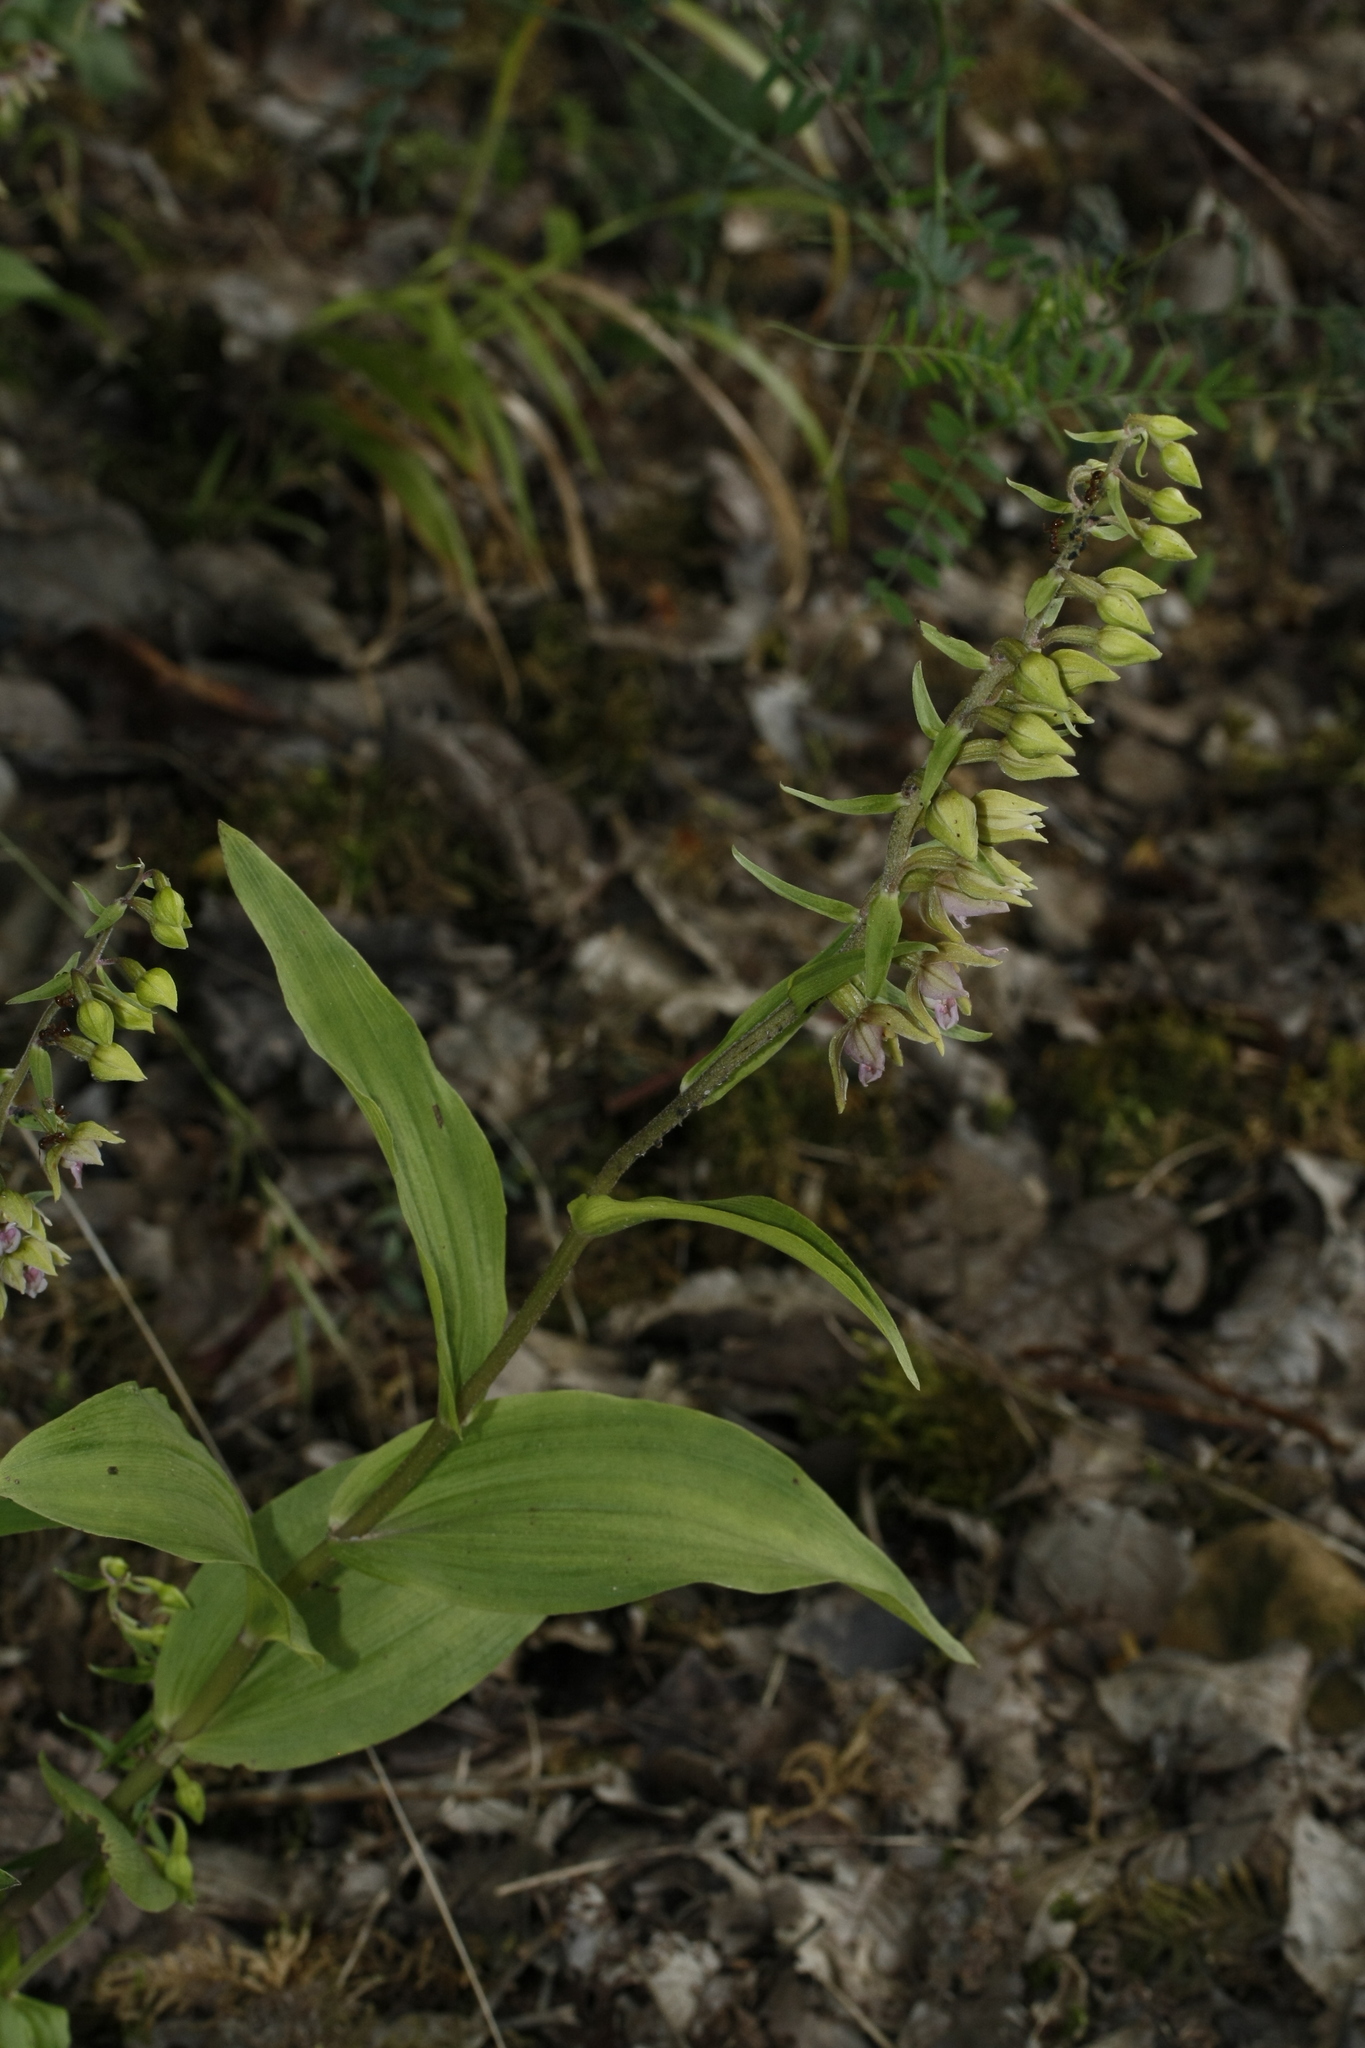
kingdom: Plantae
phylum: Tracheophyta
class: Liliopsida
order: Asparagales
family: Orchidaceae
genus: Epipactis
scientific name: Epipactis helleborine
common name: Broad-leaved helleborine
